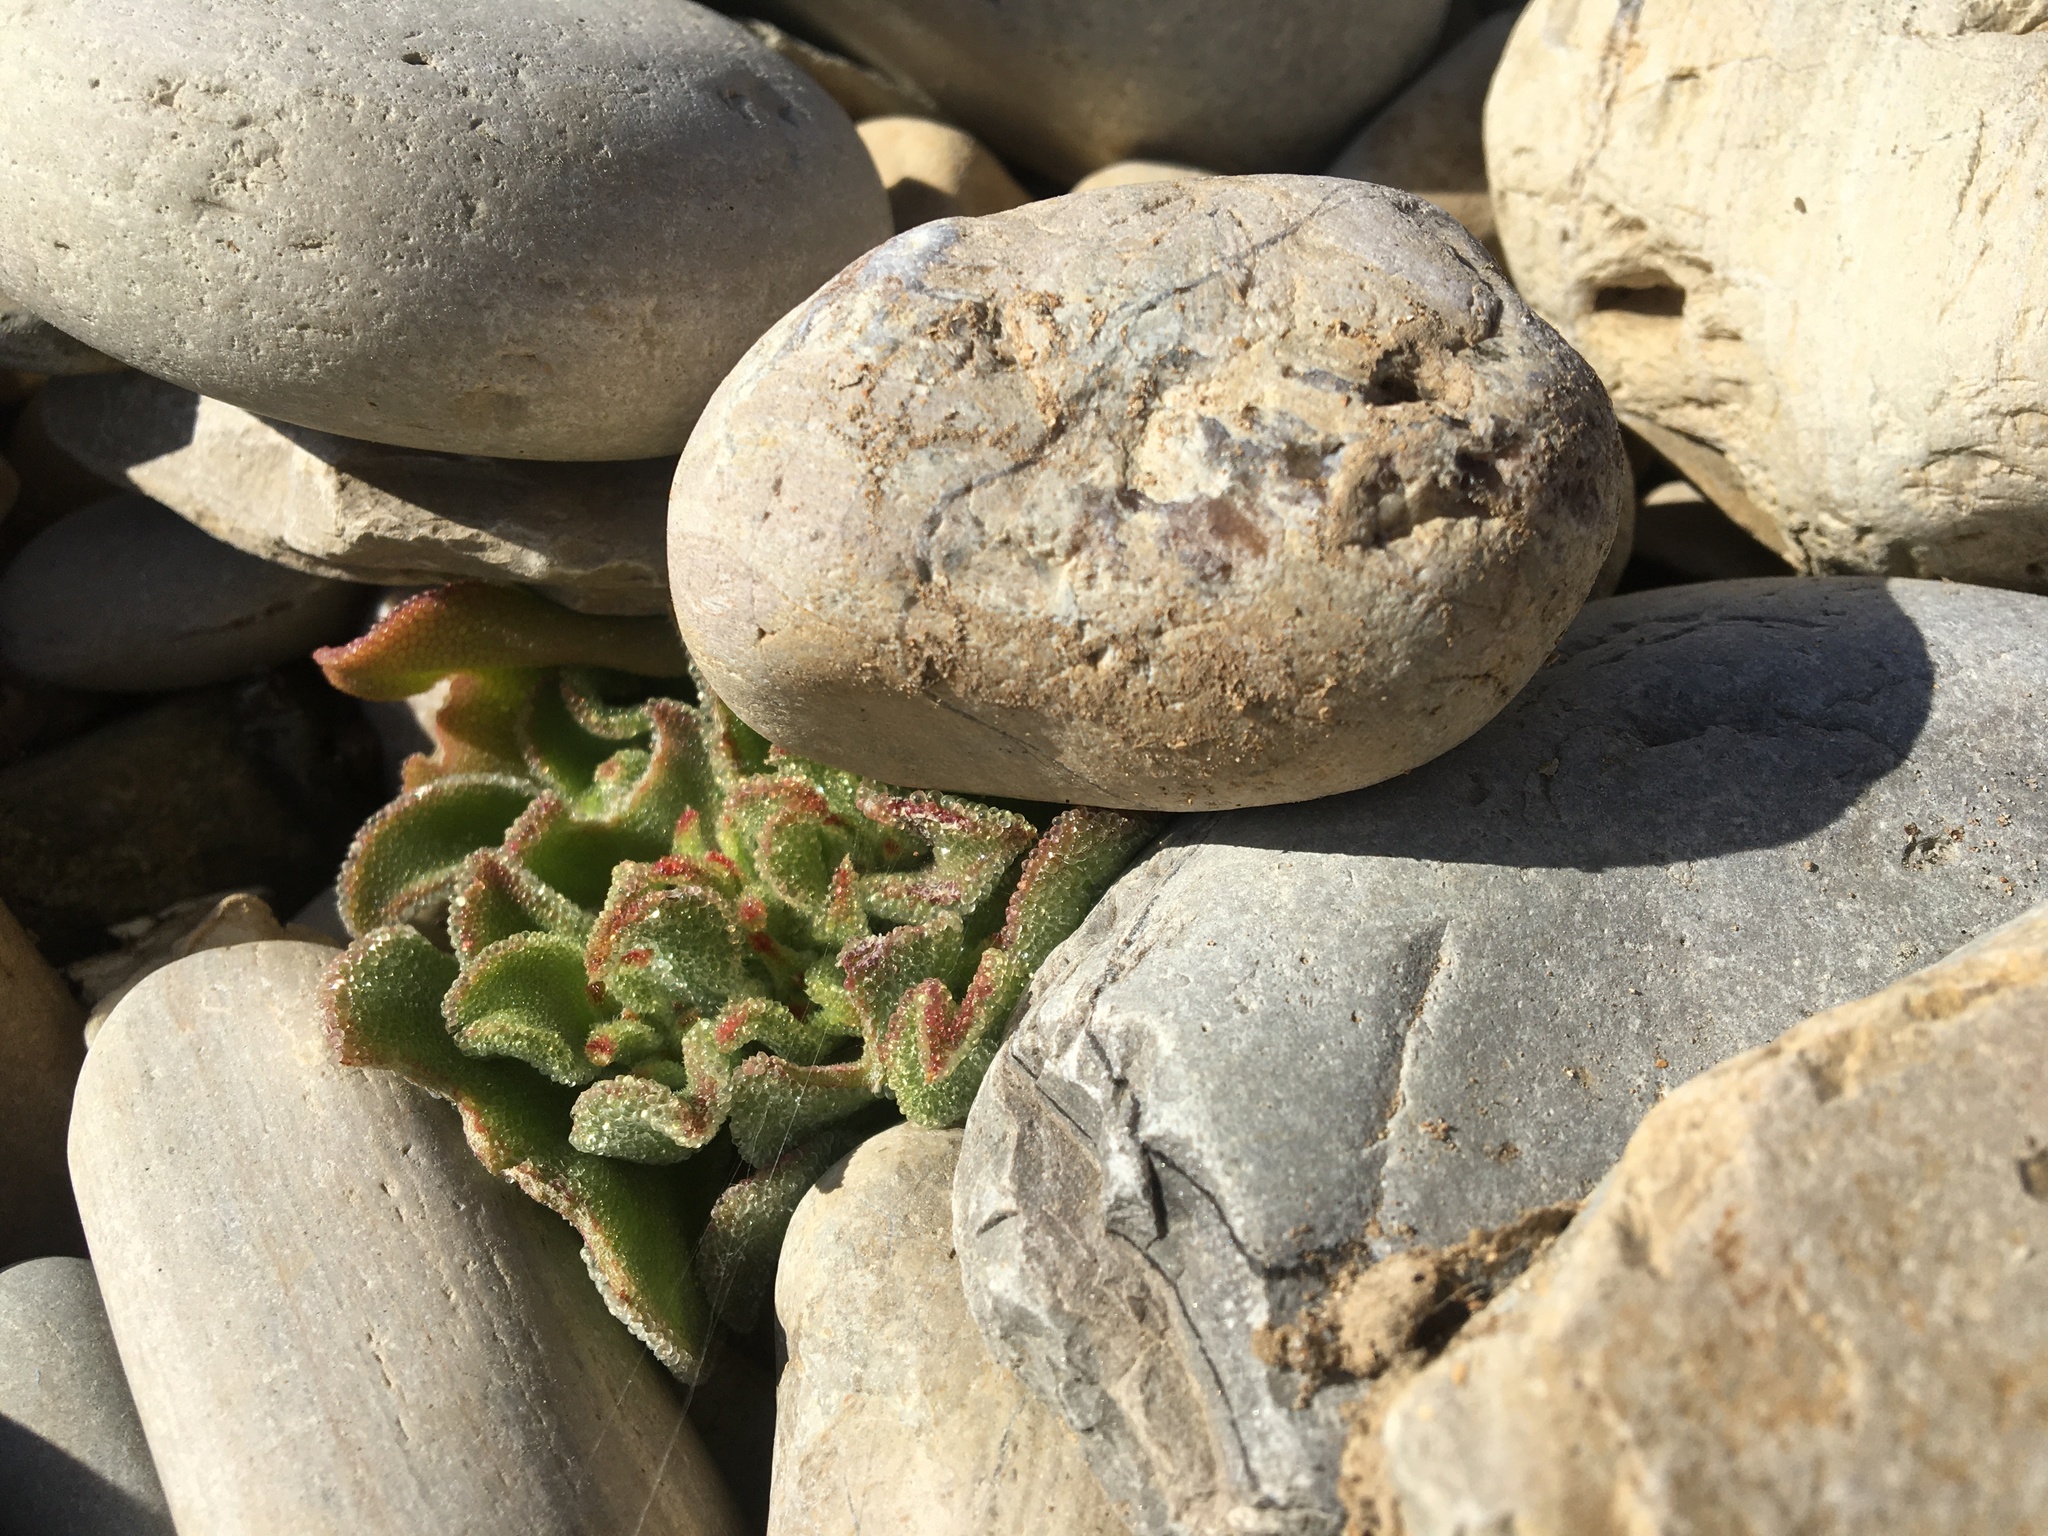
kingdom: Plantae
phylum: Tracheophyta
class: Magnoliopsida
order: Caryophyllales
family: Aizoaceae
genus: Mesembryanthemum
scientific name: Mesembryanthemum crystallinum
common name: Common iceplant
